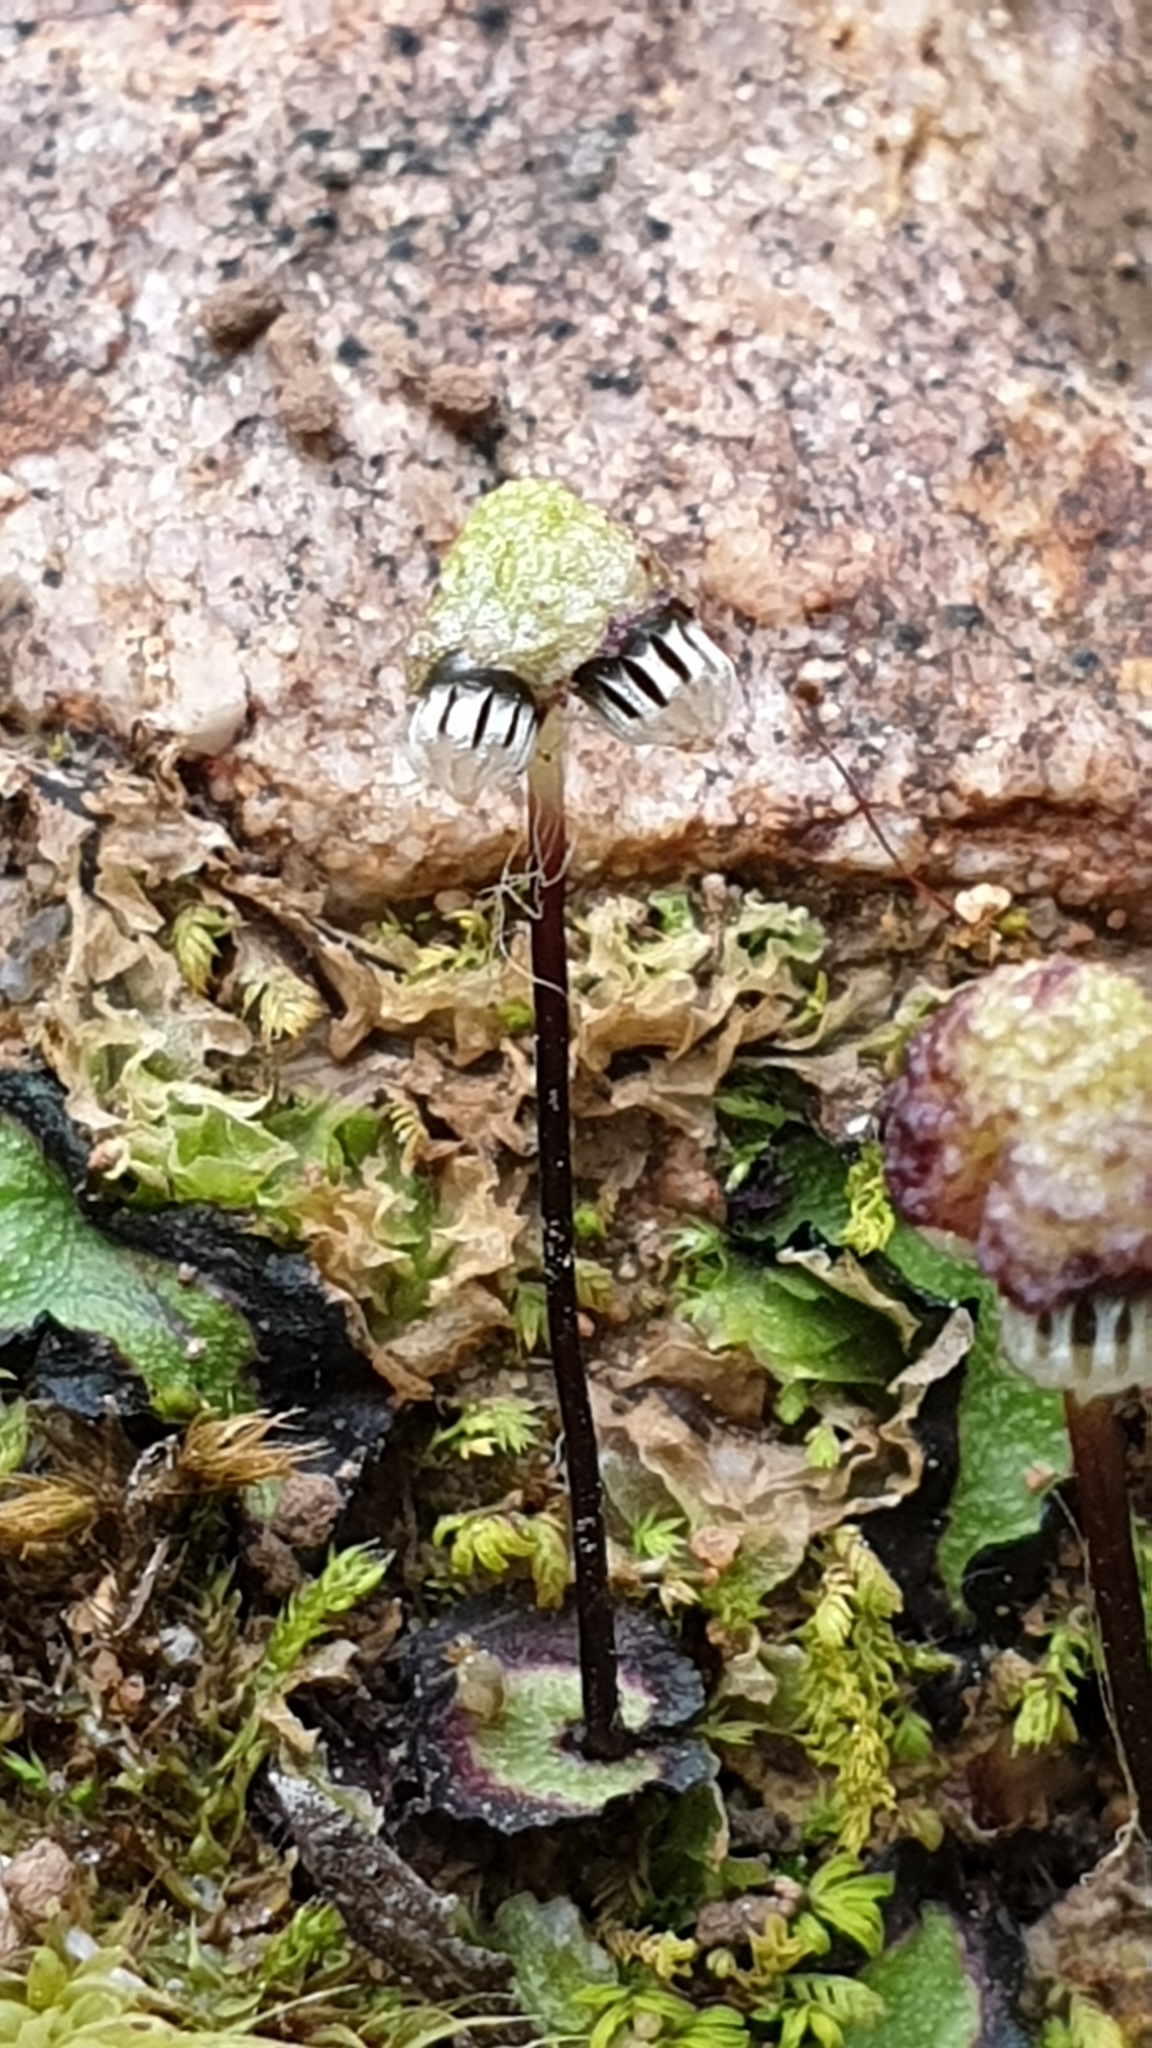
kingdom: Plantae
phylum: Marchantiophyta
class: Marchantiopsida
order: Marchantiales
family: Aytoniaceae
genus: Asterella
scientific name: Asterella drummondii
